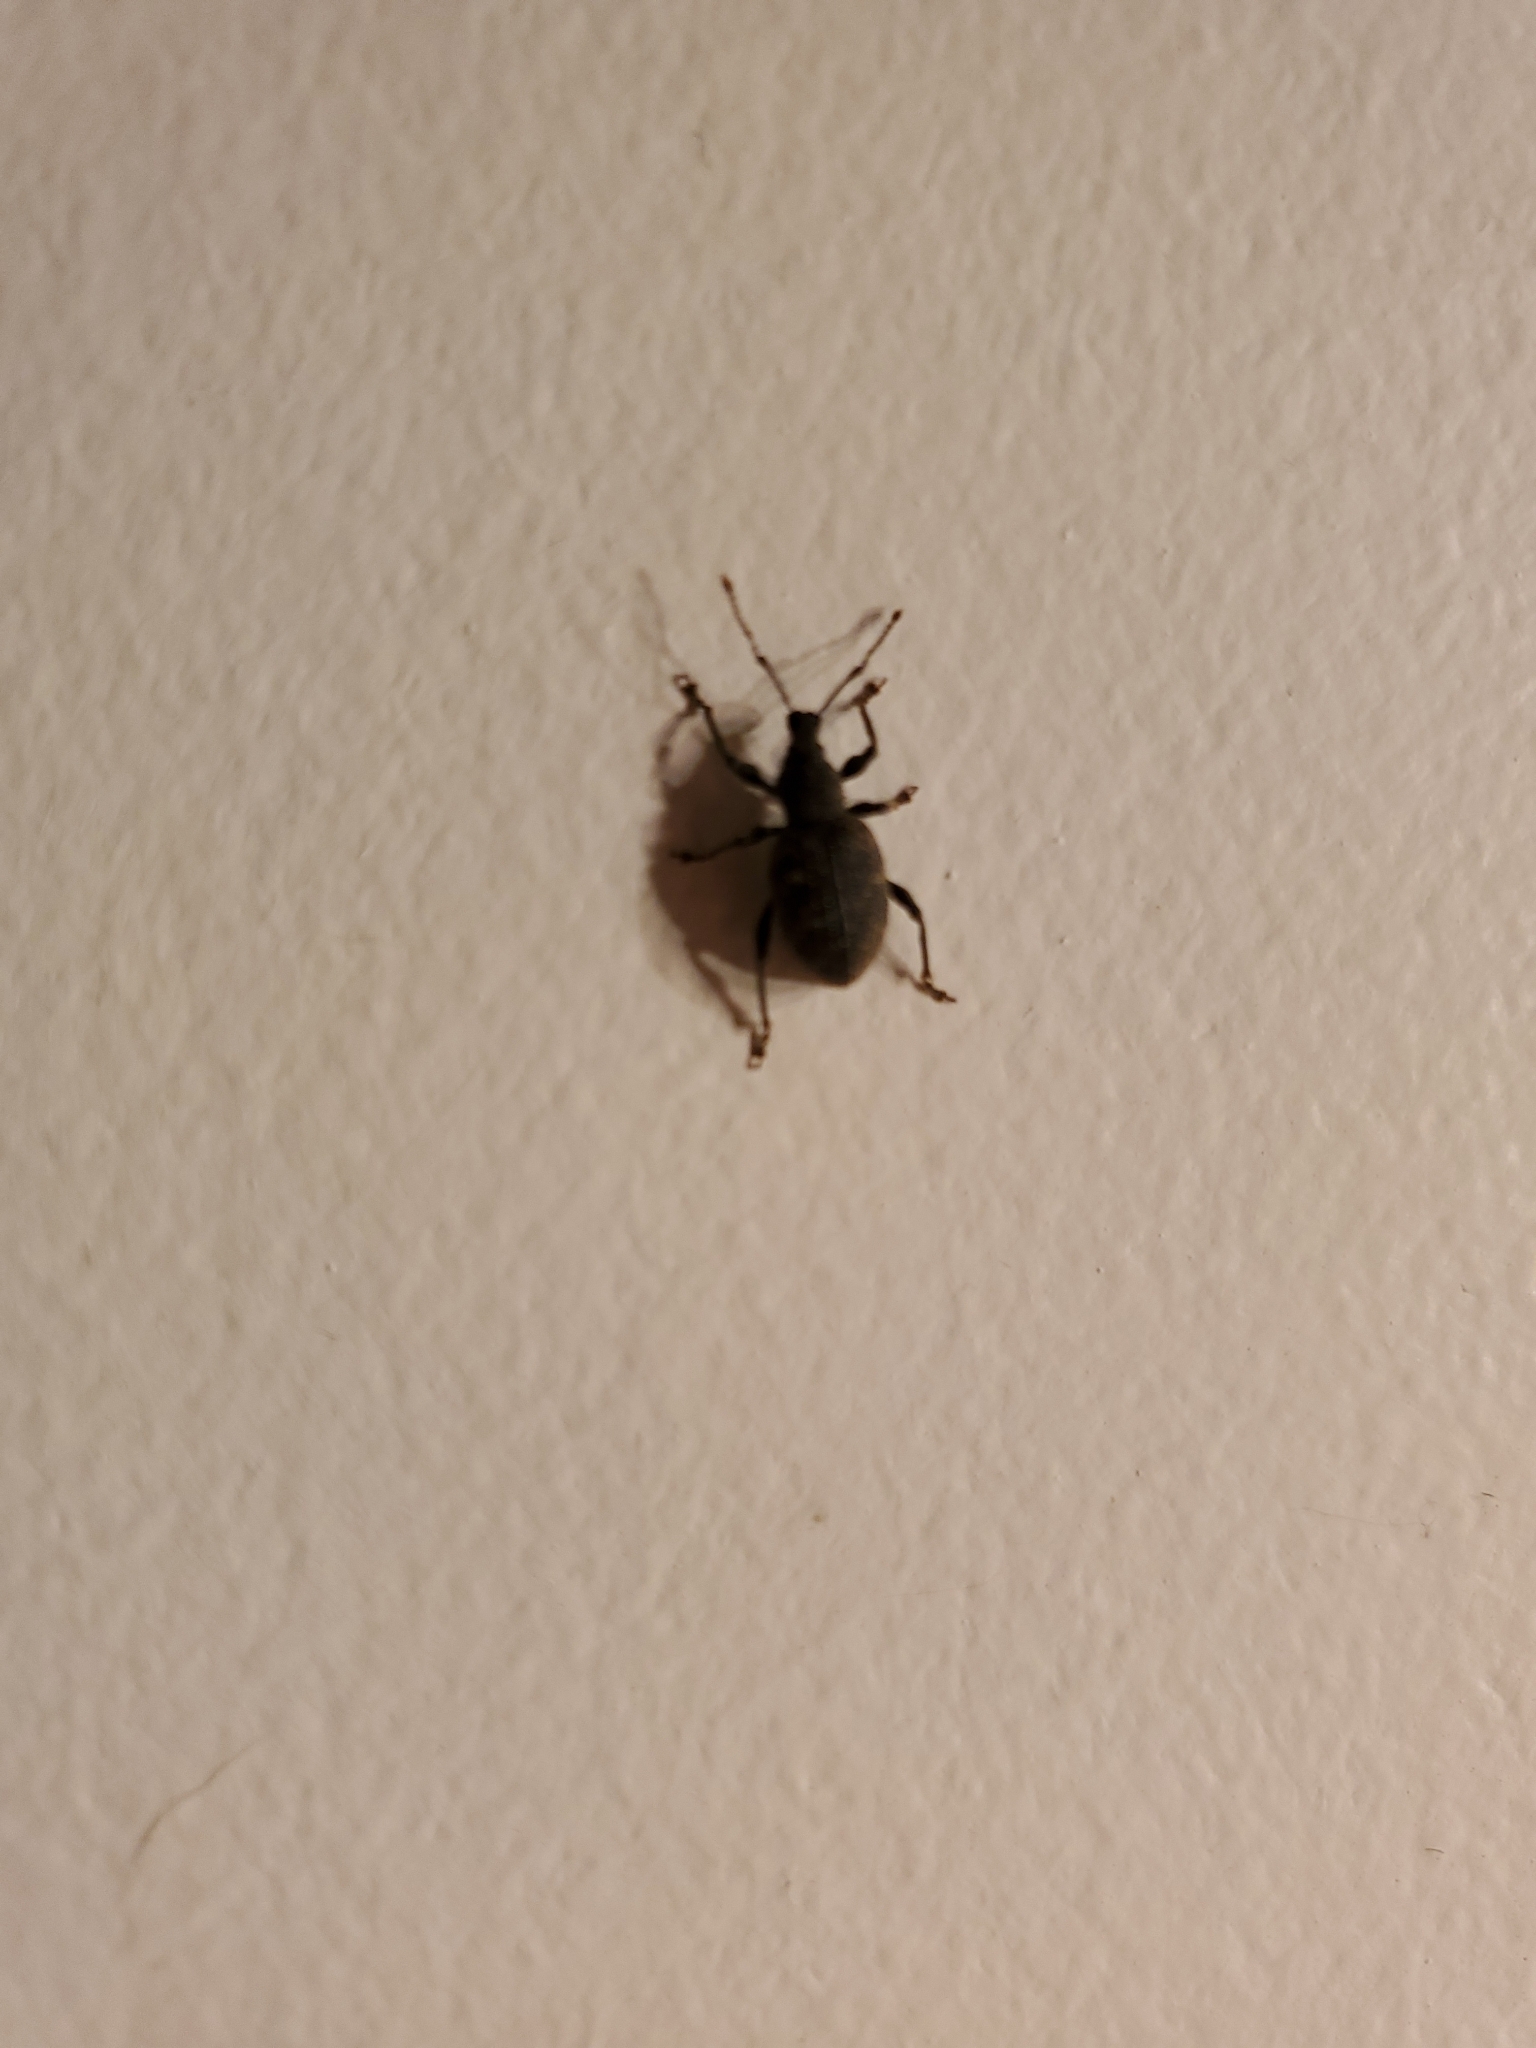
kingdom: Animalia
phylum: Arthropoda
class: Insecta
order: Coleoptera
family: Curculionidae
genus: Otiorhynchus
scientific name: Otiorhynchus sulcatus
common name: Black vine weevil
